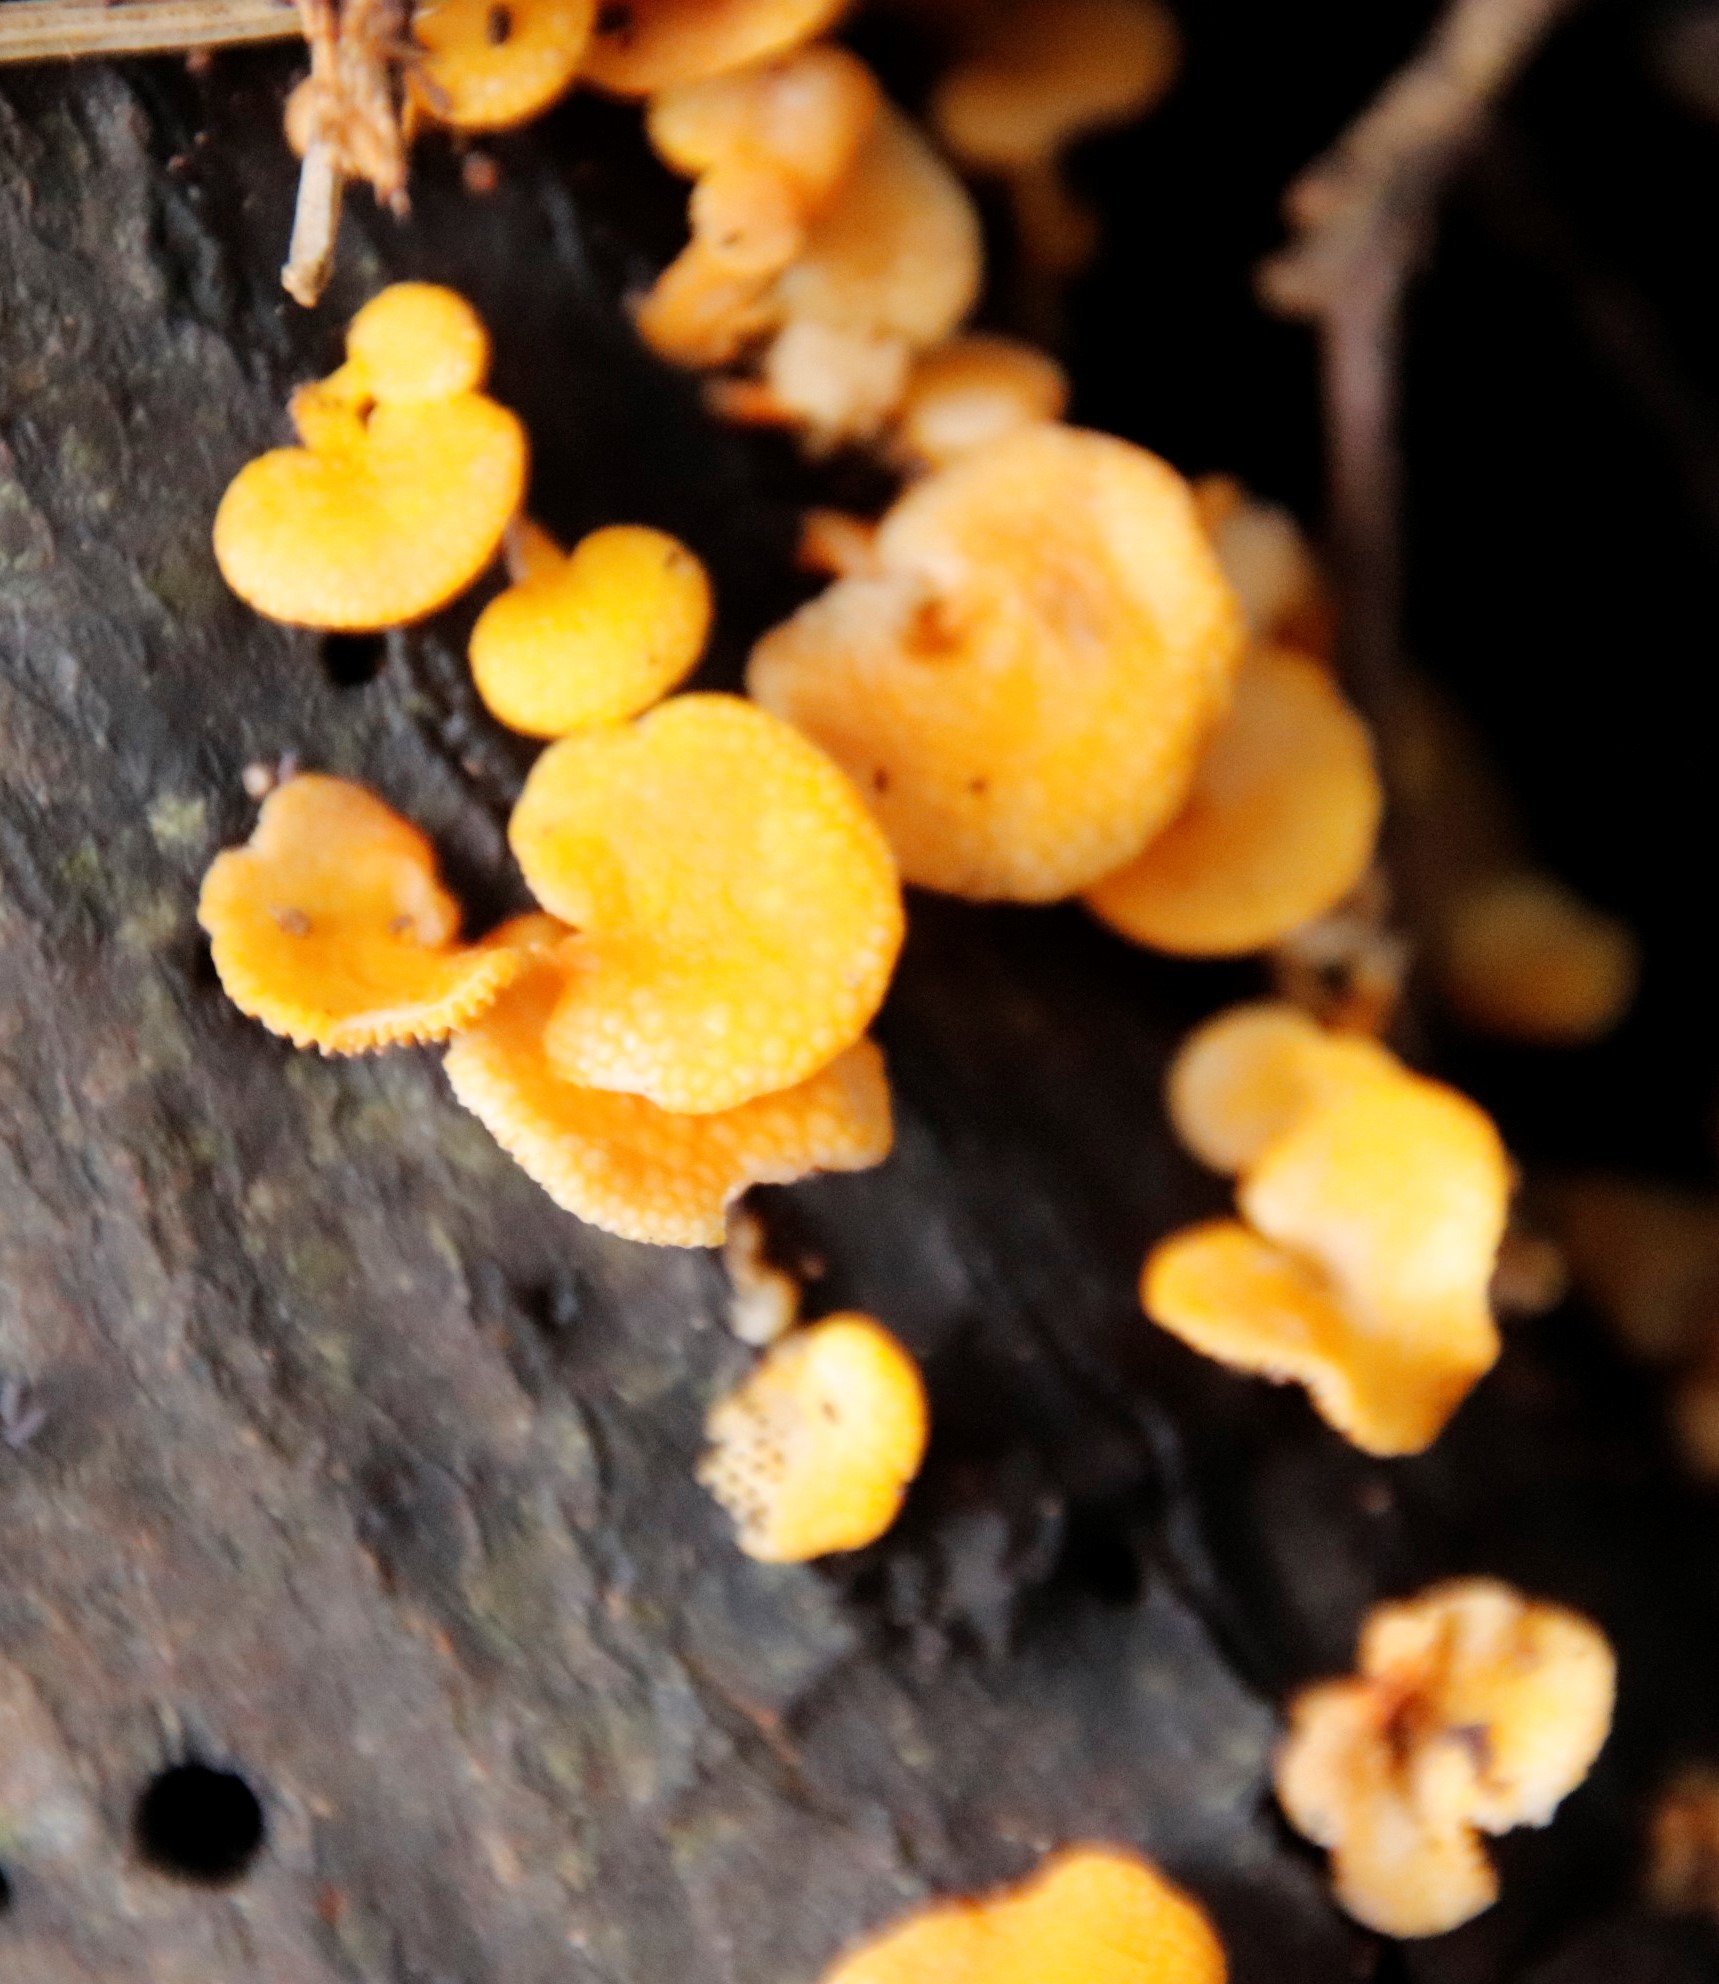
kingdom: Fungi
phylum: Basidiomycota
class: Agaricomycetes
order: Agaricales
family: Mycenaceae
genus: Favolaschia
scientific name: Favolaschia claudopus
